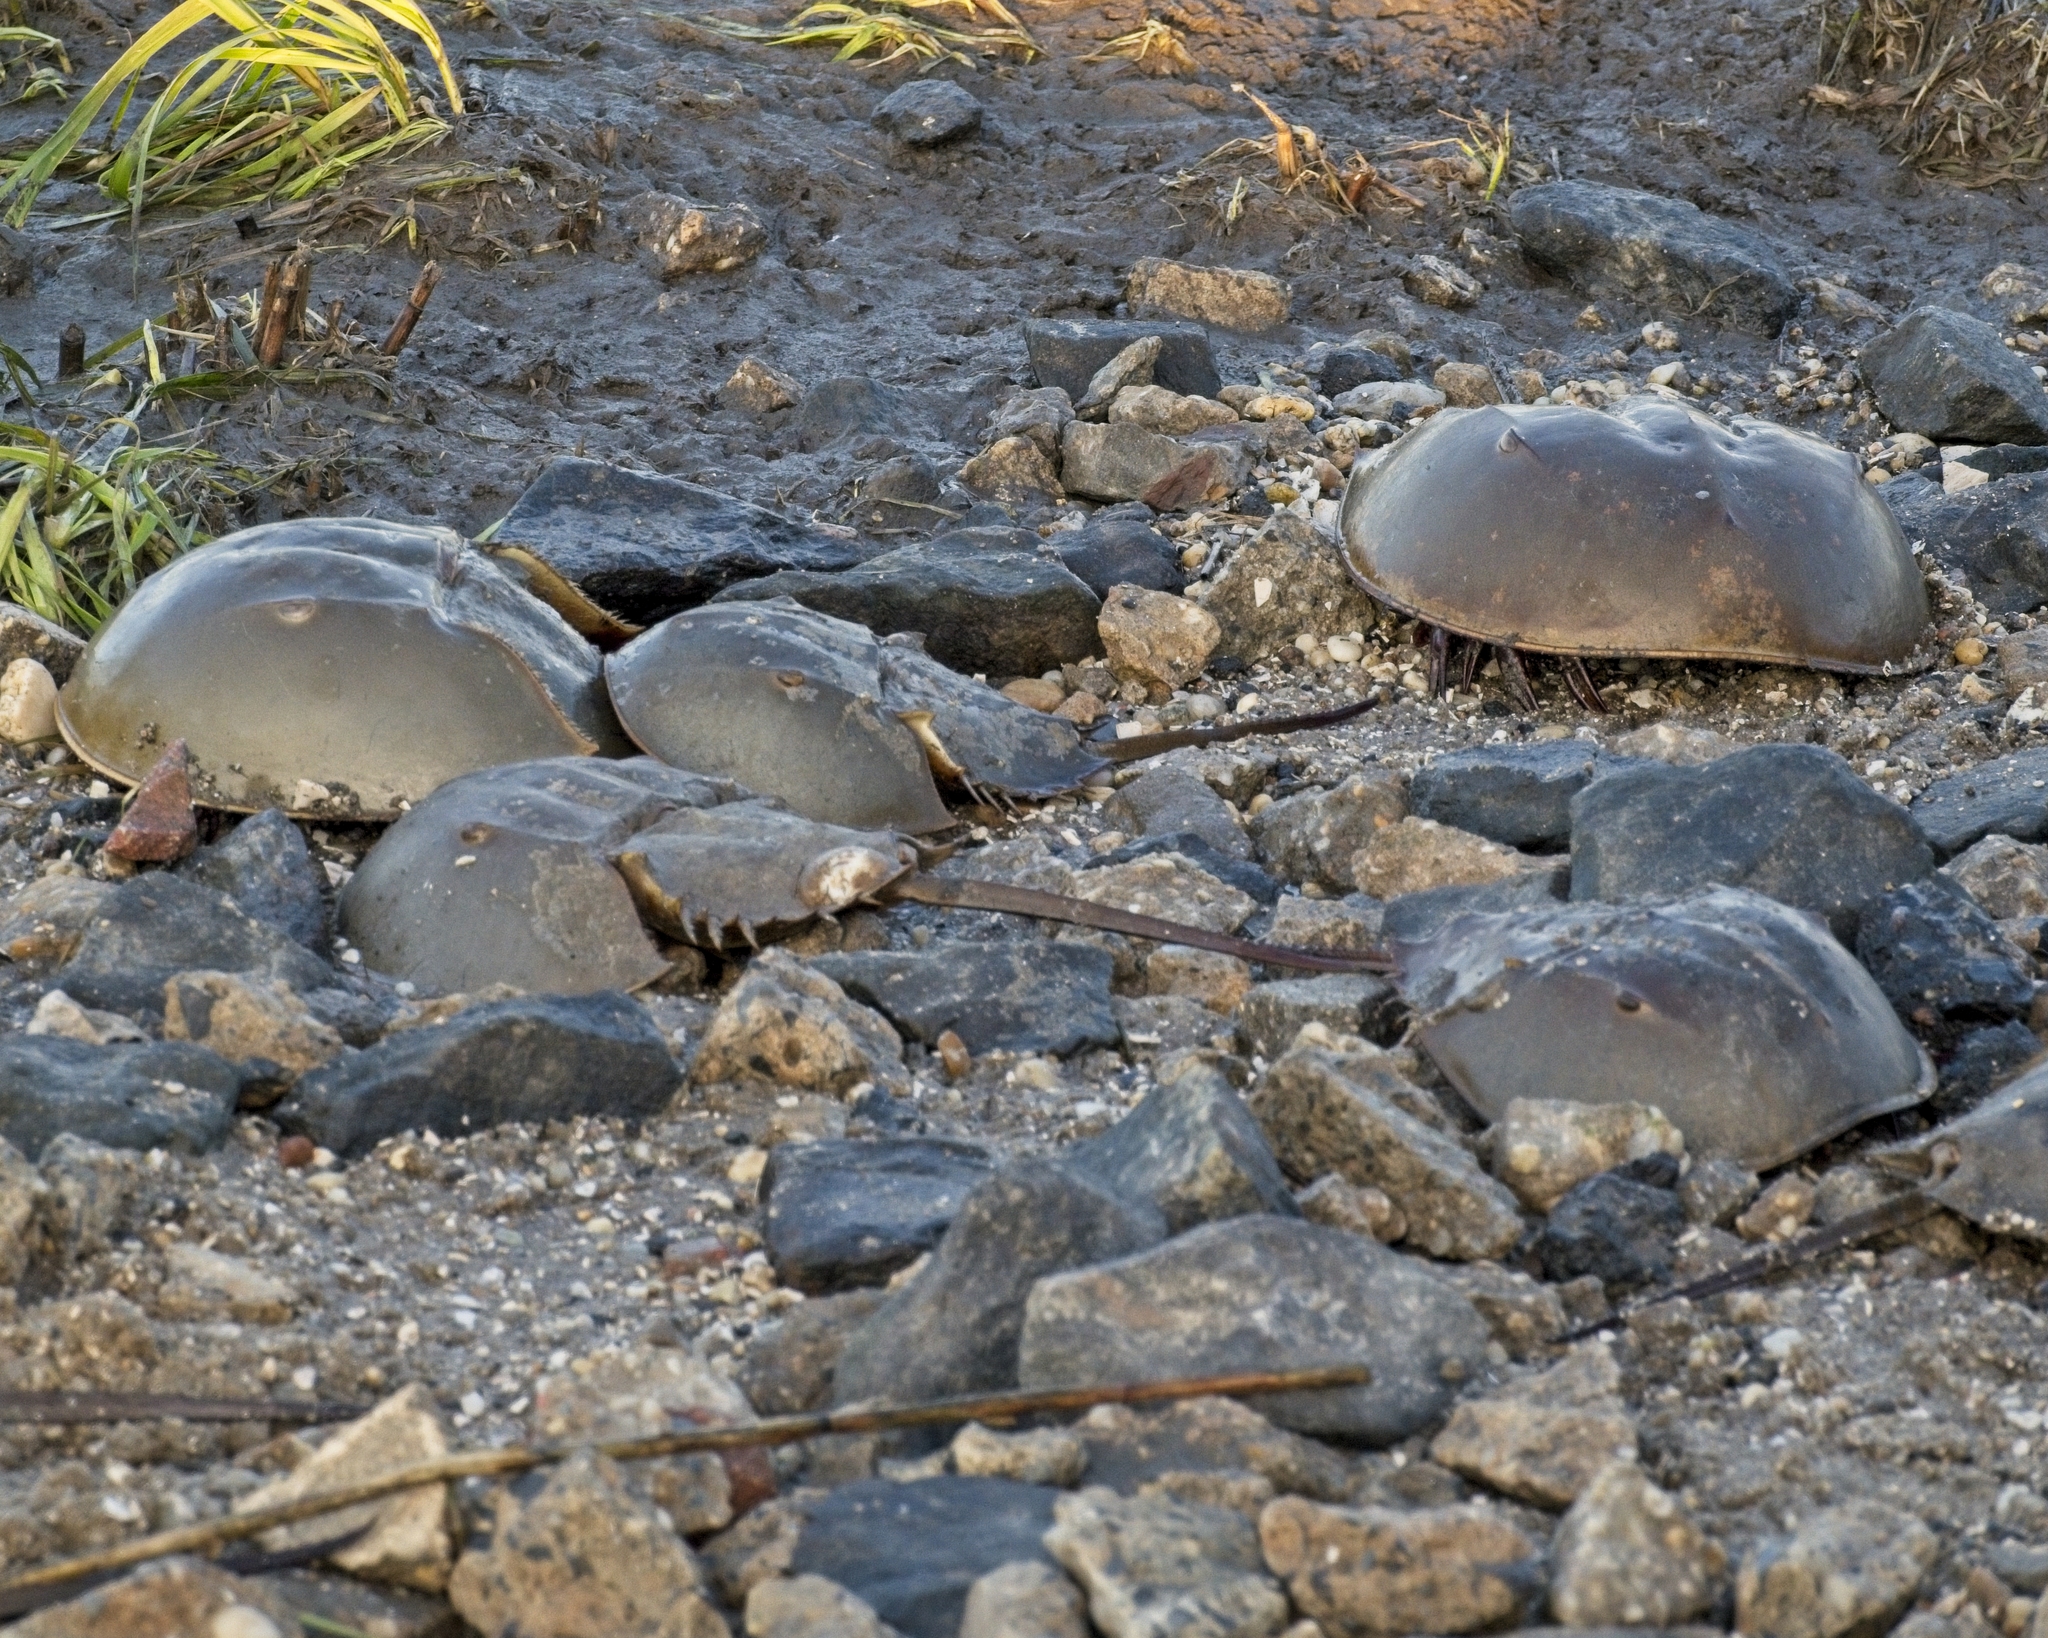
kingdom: Animalia
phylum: Arthropoda
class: Merostomata
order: Xiphosurida
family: Limulidae
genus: Limulus
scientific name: Limulus polyphemus
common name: Horseshoe crab
